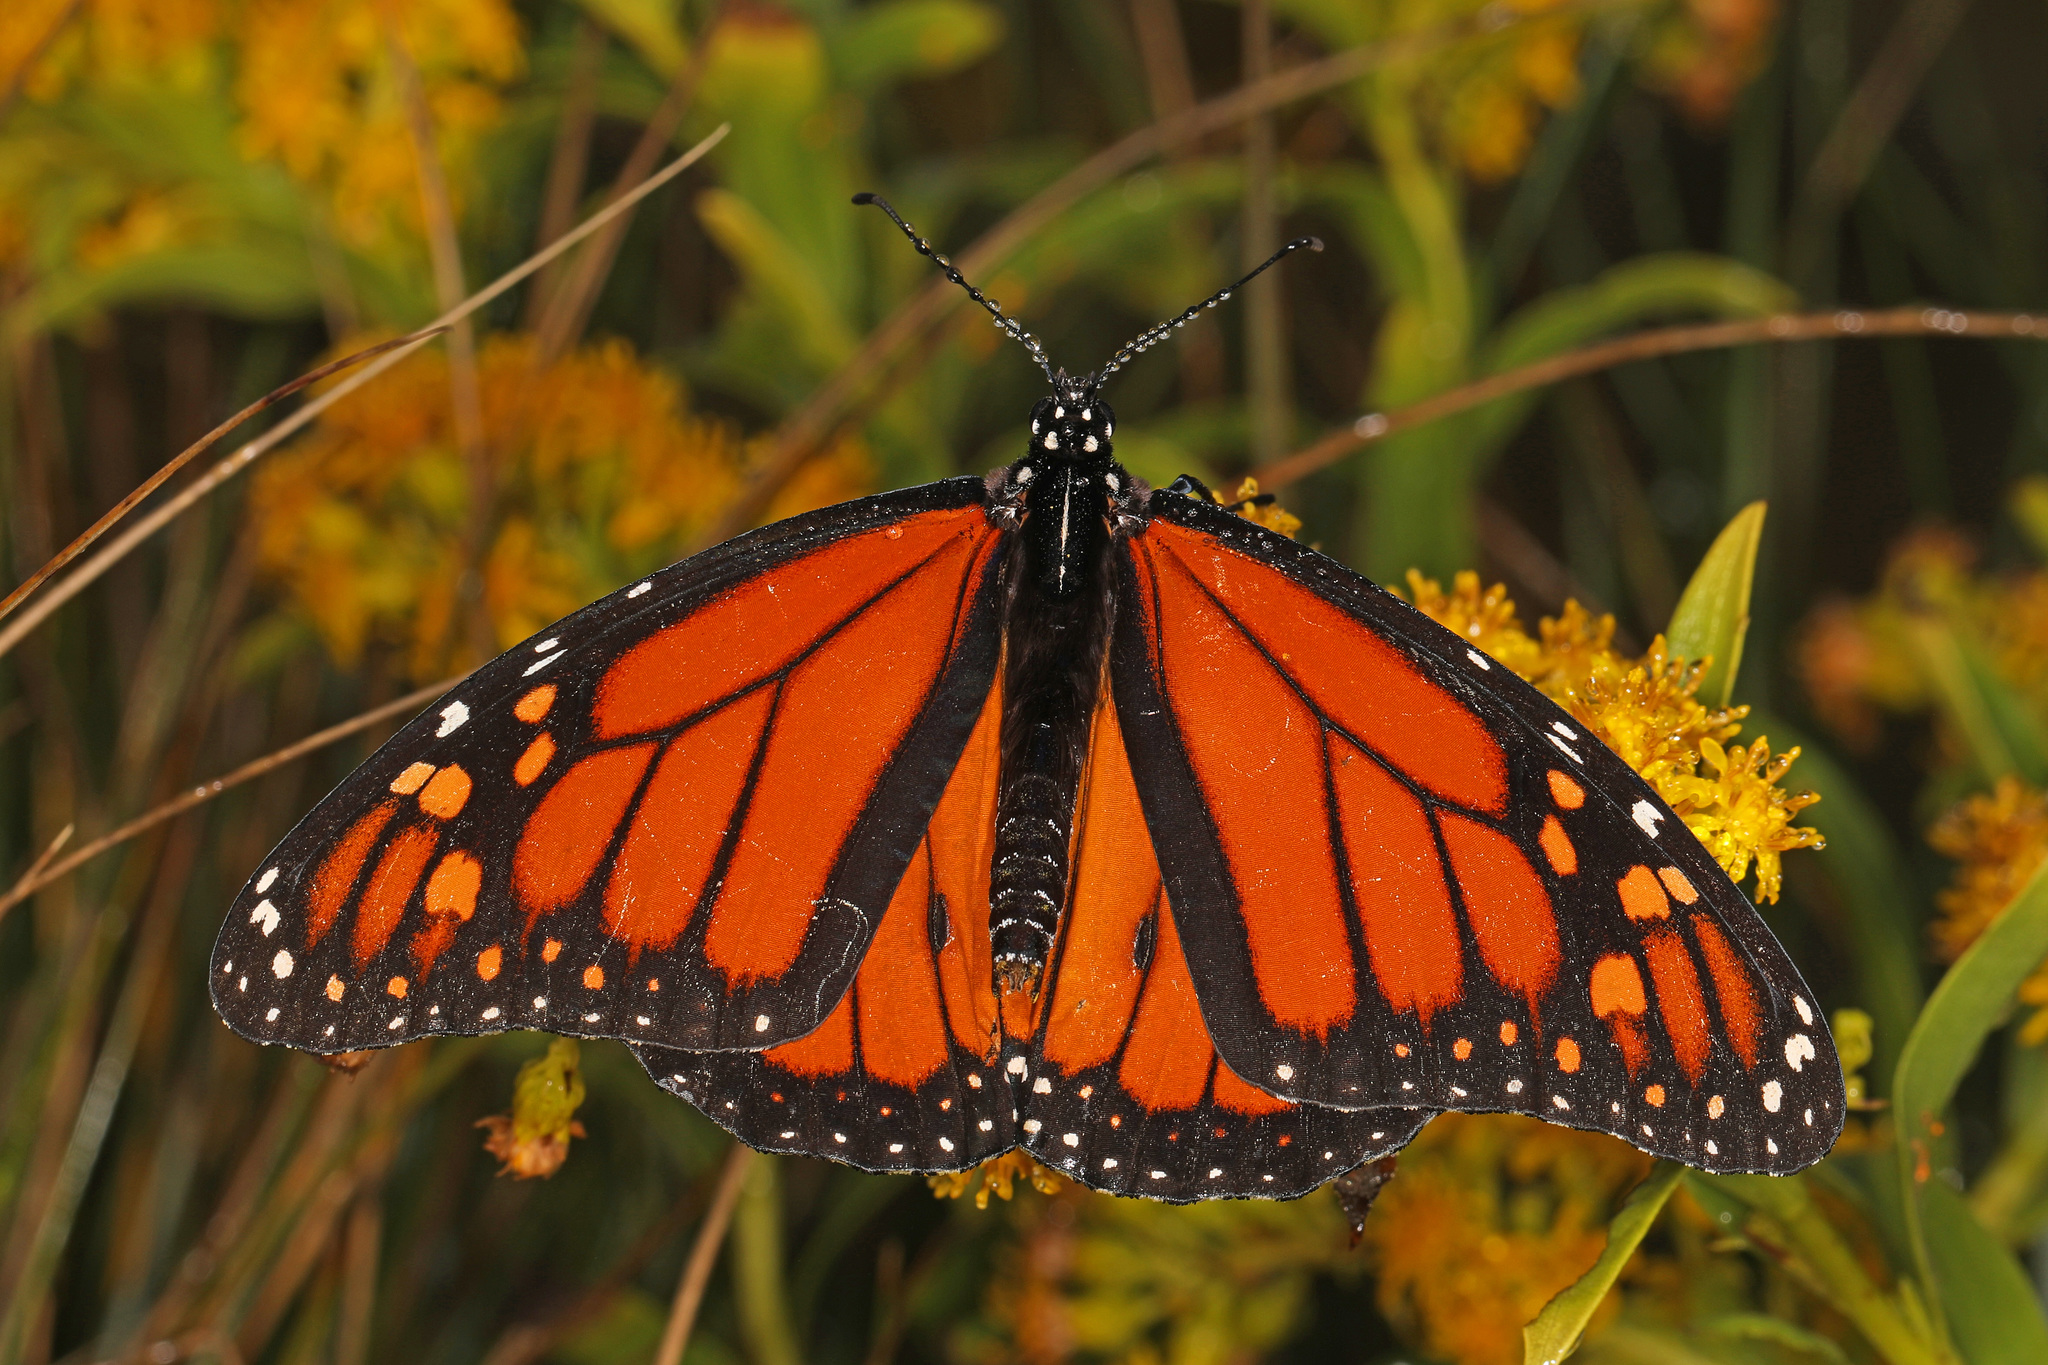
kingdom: Animalia
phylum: Arthropoda
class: Insecta
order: Lepidoptera
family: Nymphalidae
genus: Danaus
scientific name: Danaus plexippus
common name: Monarch
